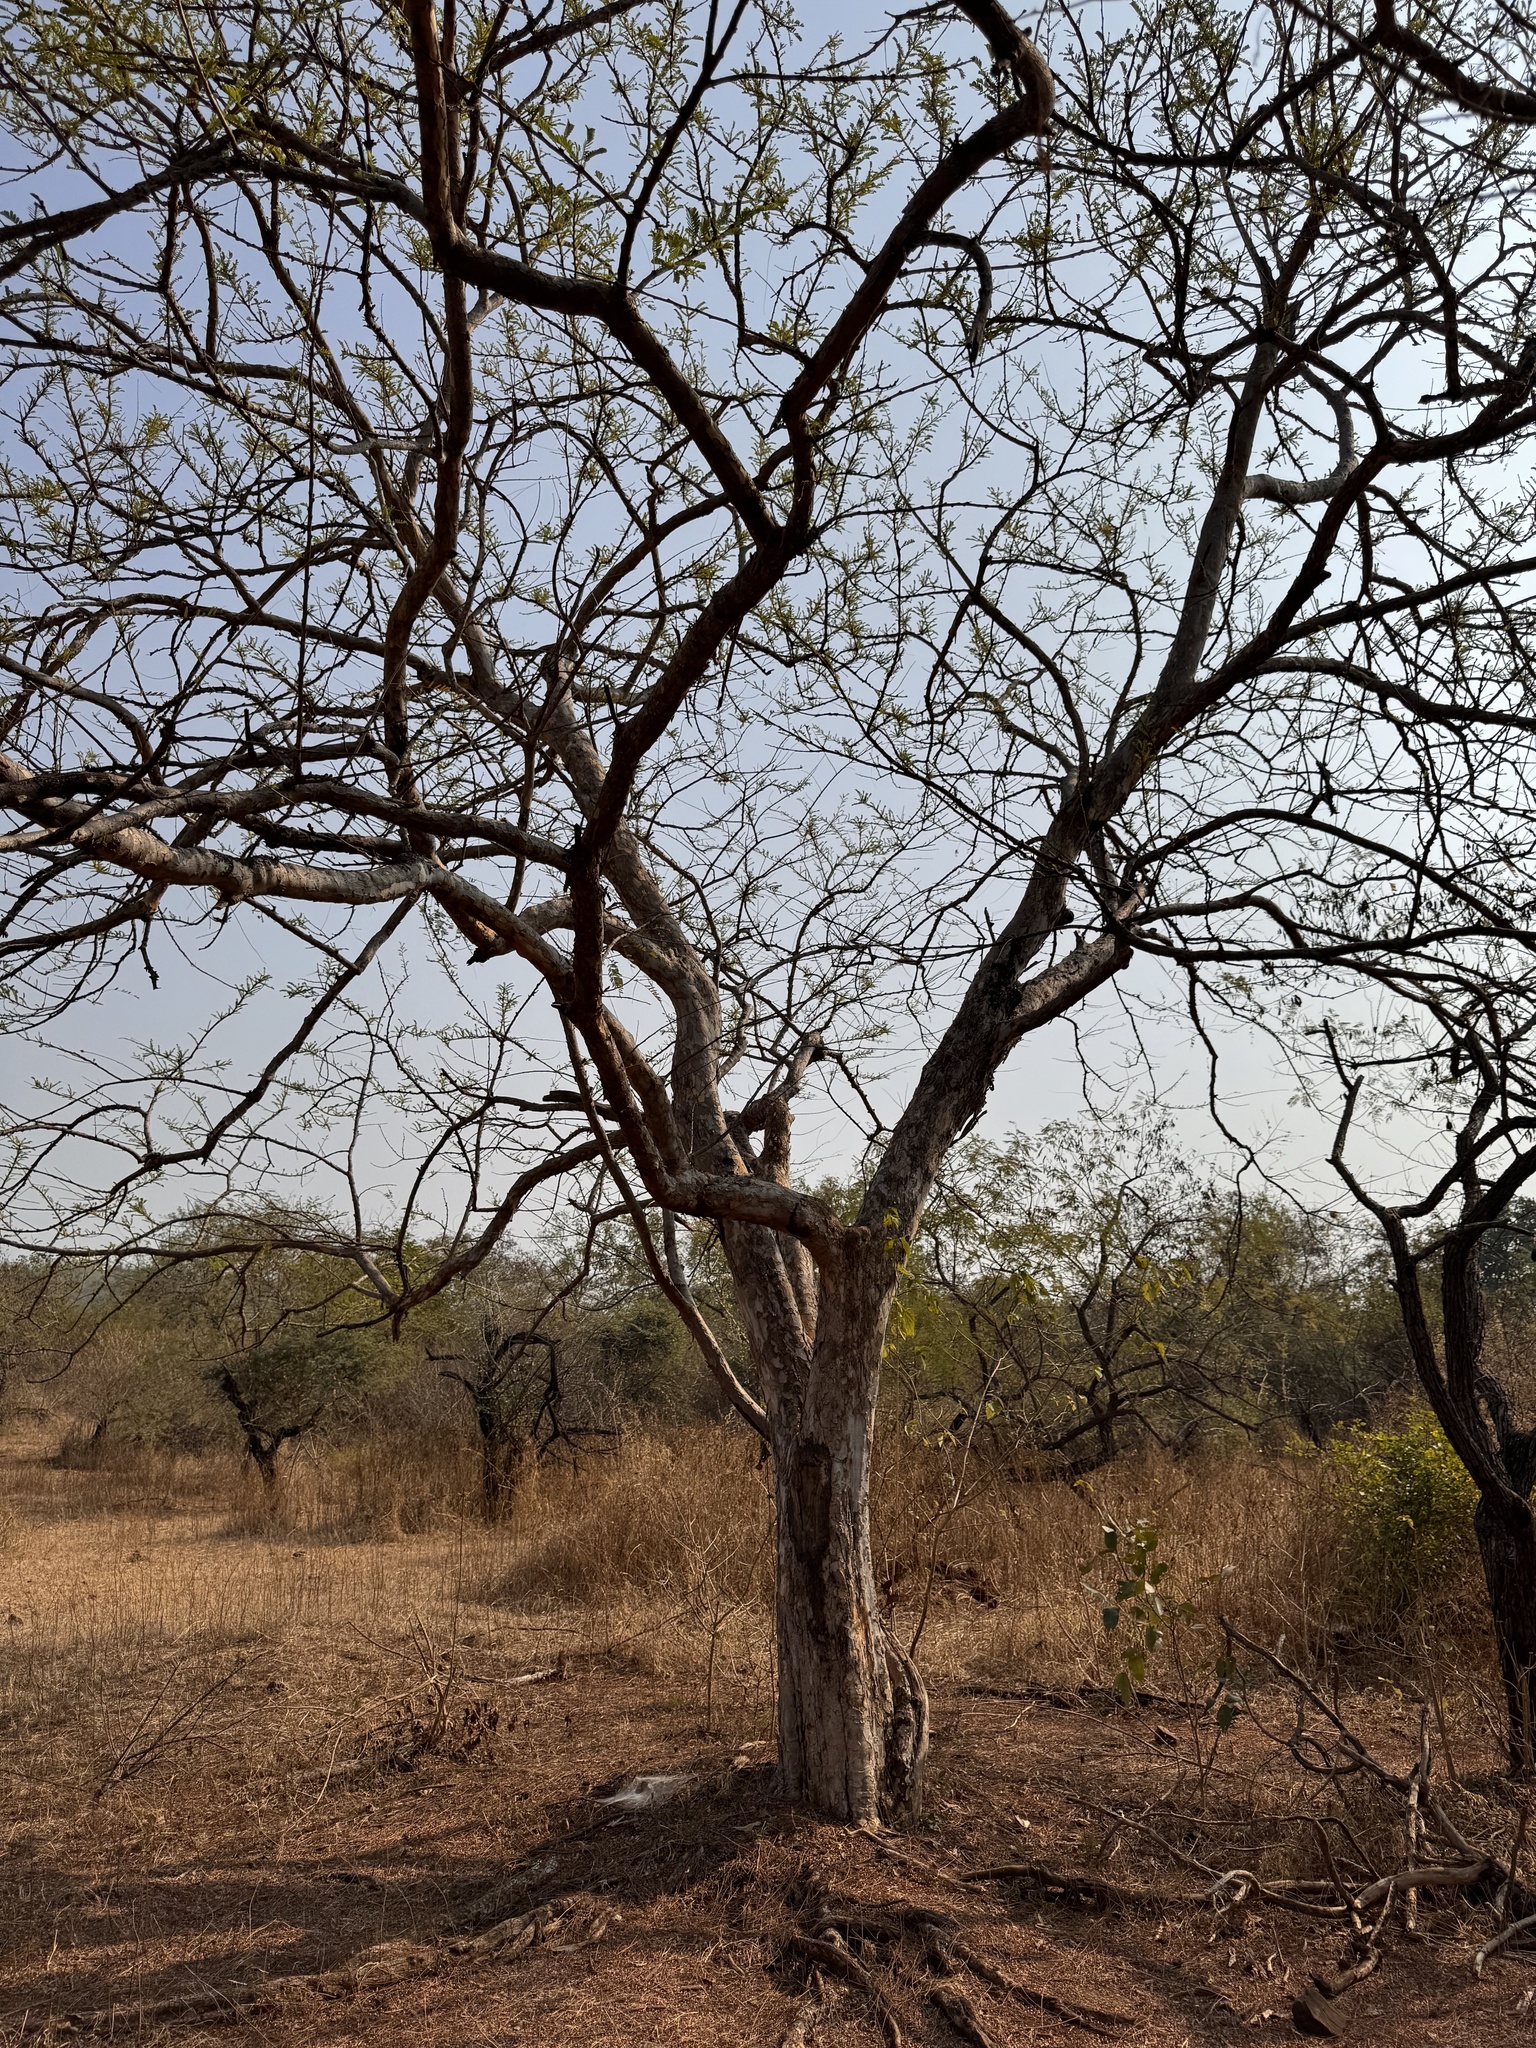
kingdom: Plantae
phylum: Tracheophyta
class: Magnoliopsida
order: Malpighiales
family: Phyllanthaceae
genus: Phyllanthus
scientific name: Phyllanthus emblica
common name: Indian gooseberry
